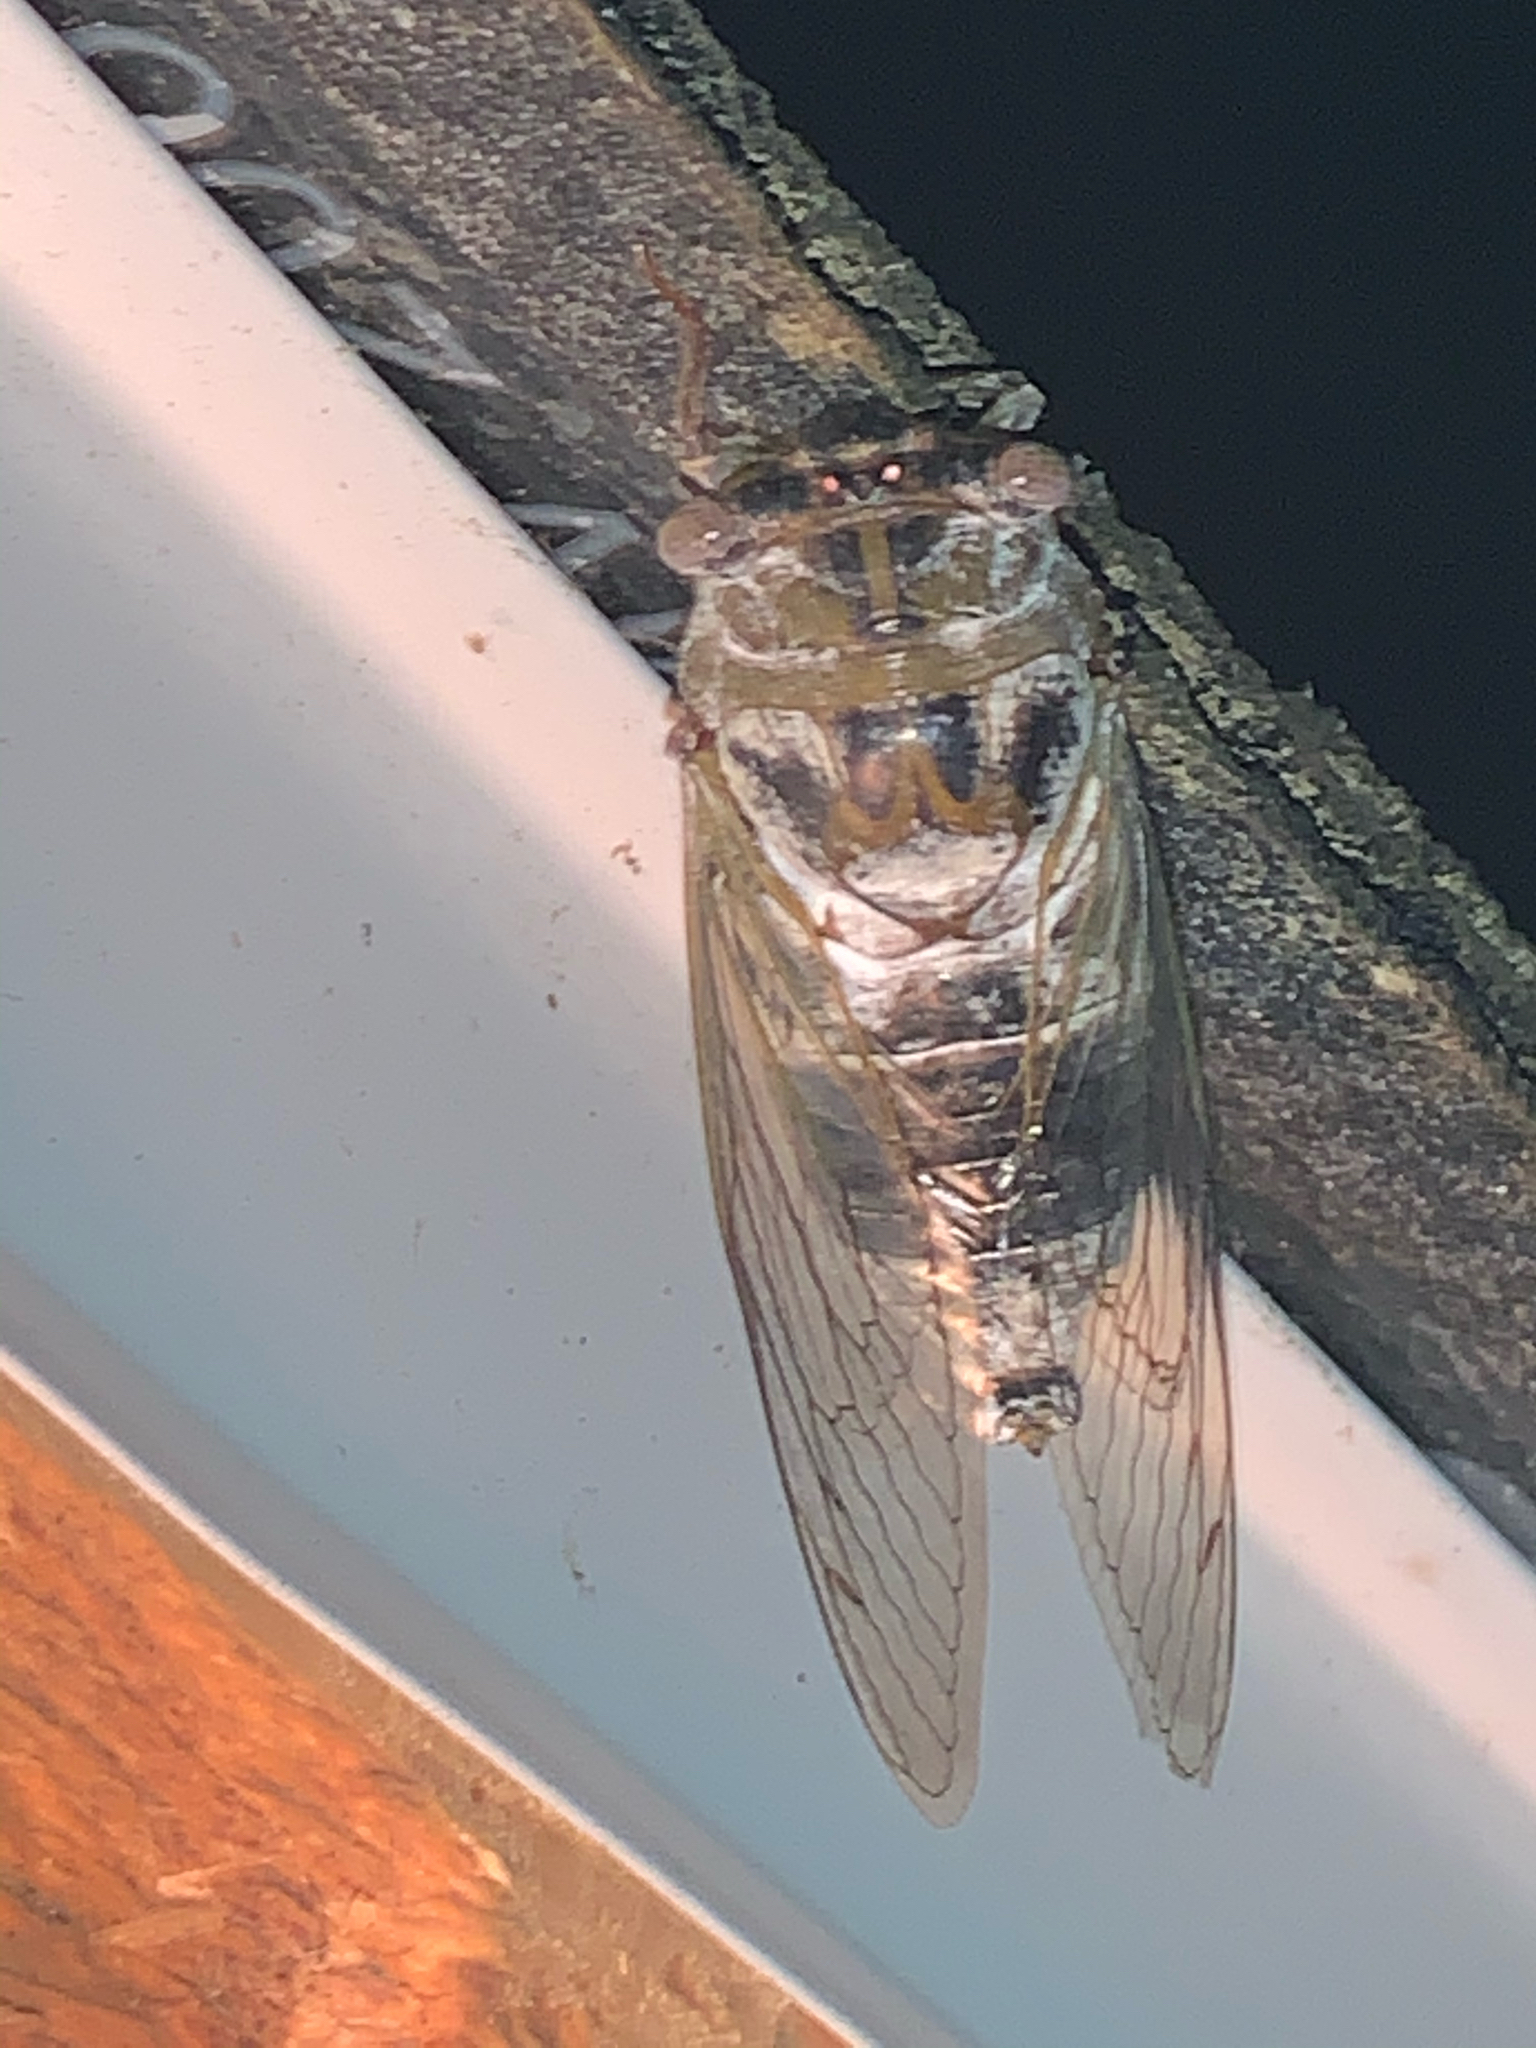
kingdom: Animalia
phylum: Arthropoda
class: Insecta
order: Hemiptera
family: Cicadidae
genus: Diceroprocta
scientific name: Diceroprocta grossa
